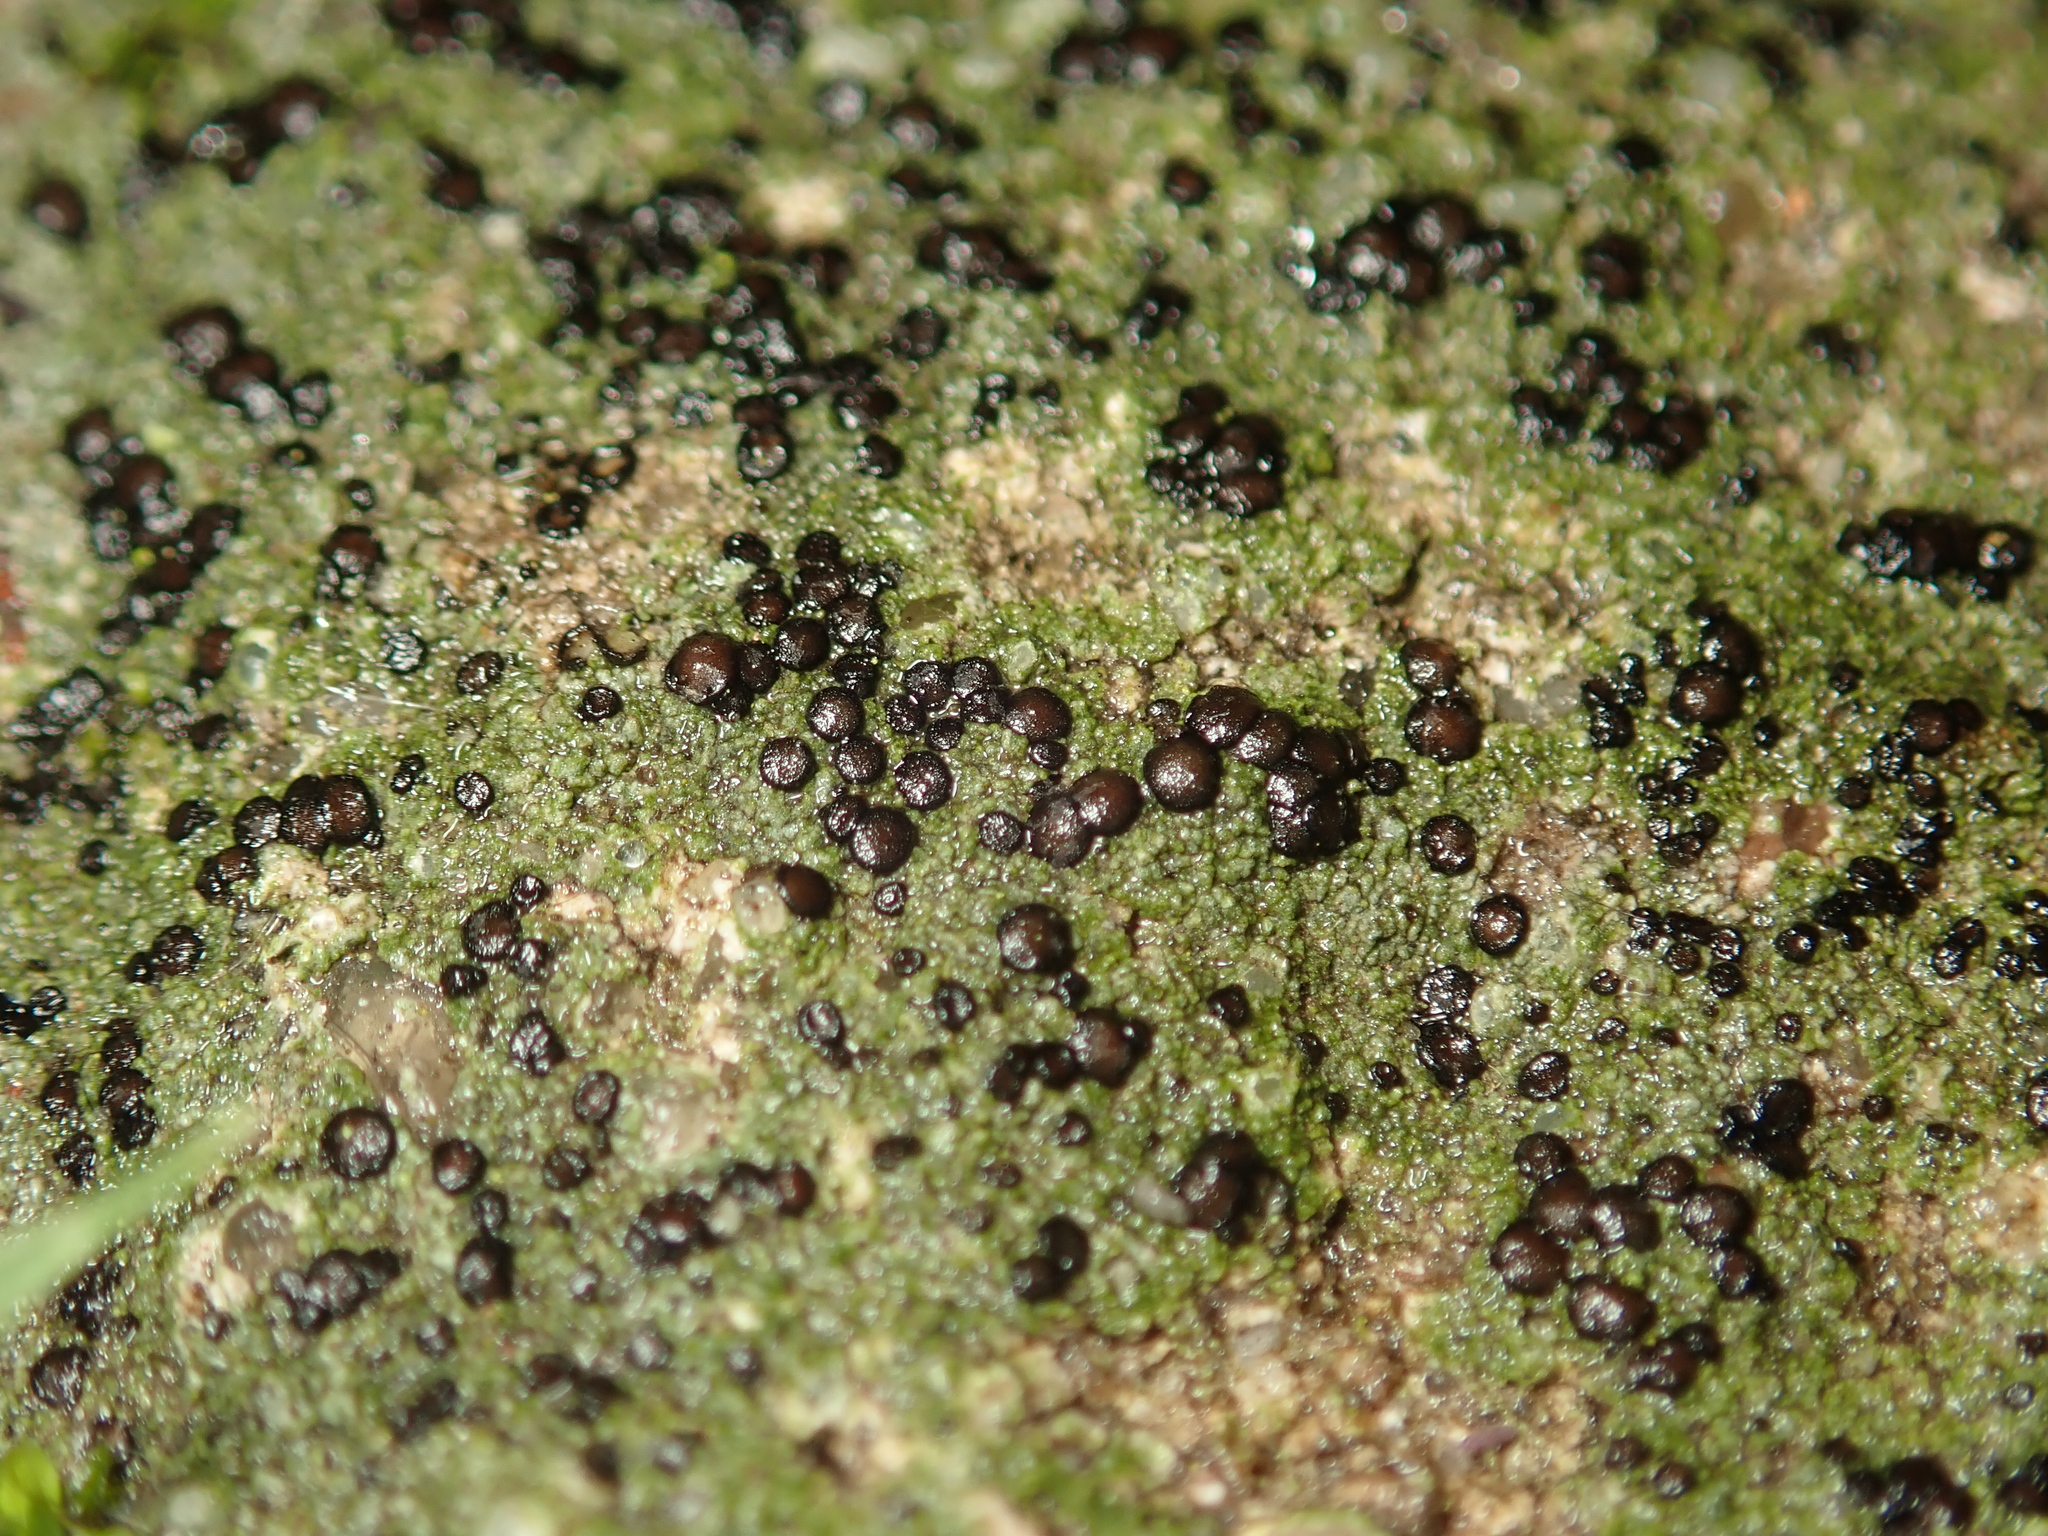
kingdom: Fungi
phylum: Ascomycota
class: Lecanoromycetes
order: Lecanorales
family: Lecanoraceae
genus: Lecidella
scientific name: Lecidella stigmatea
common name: Limestone disc lichen
